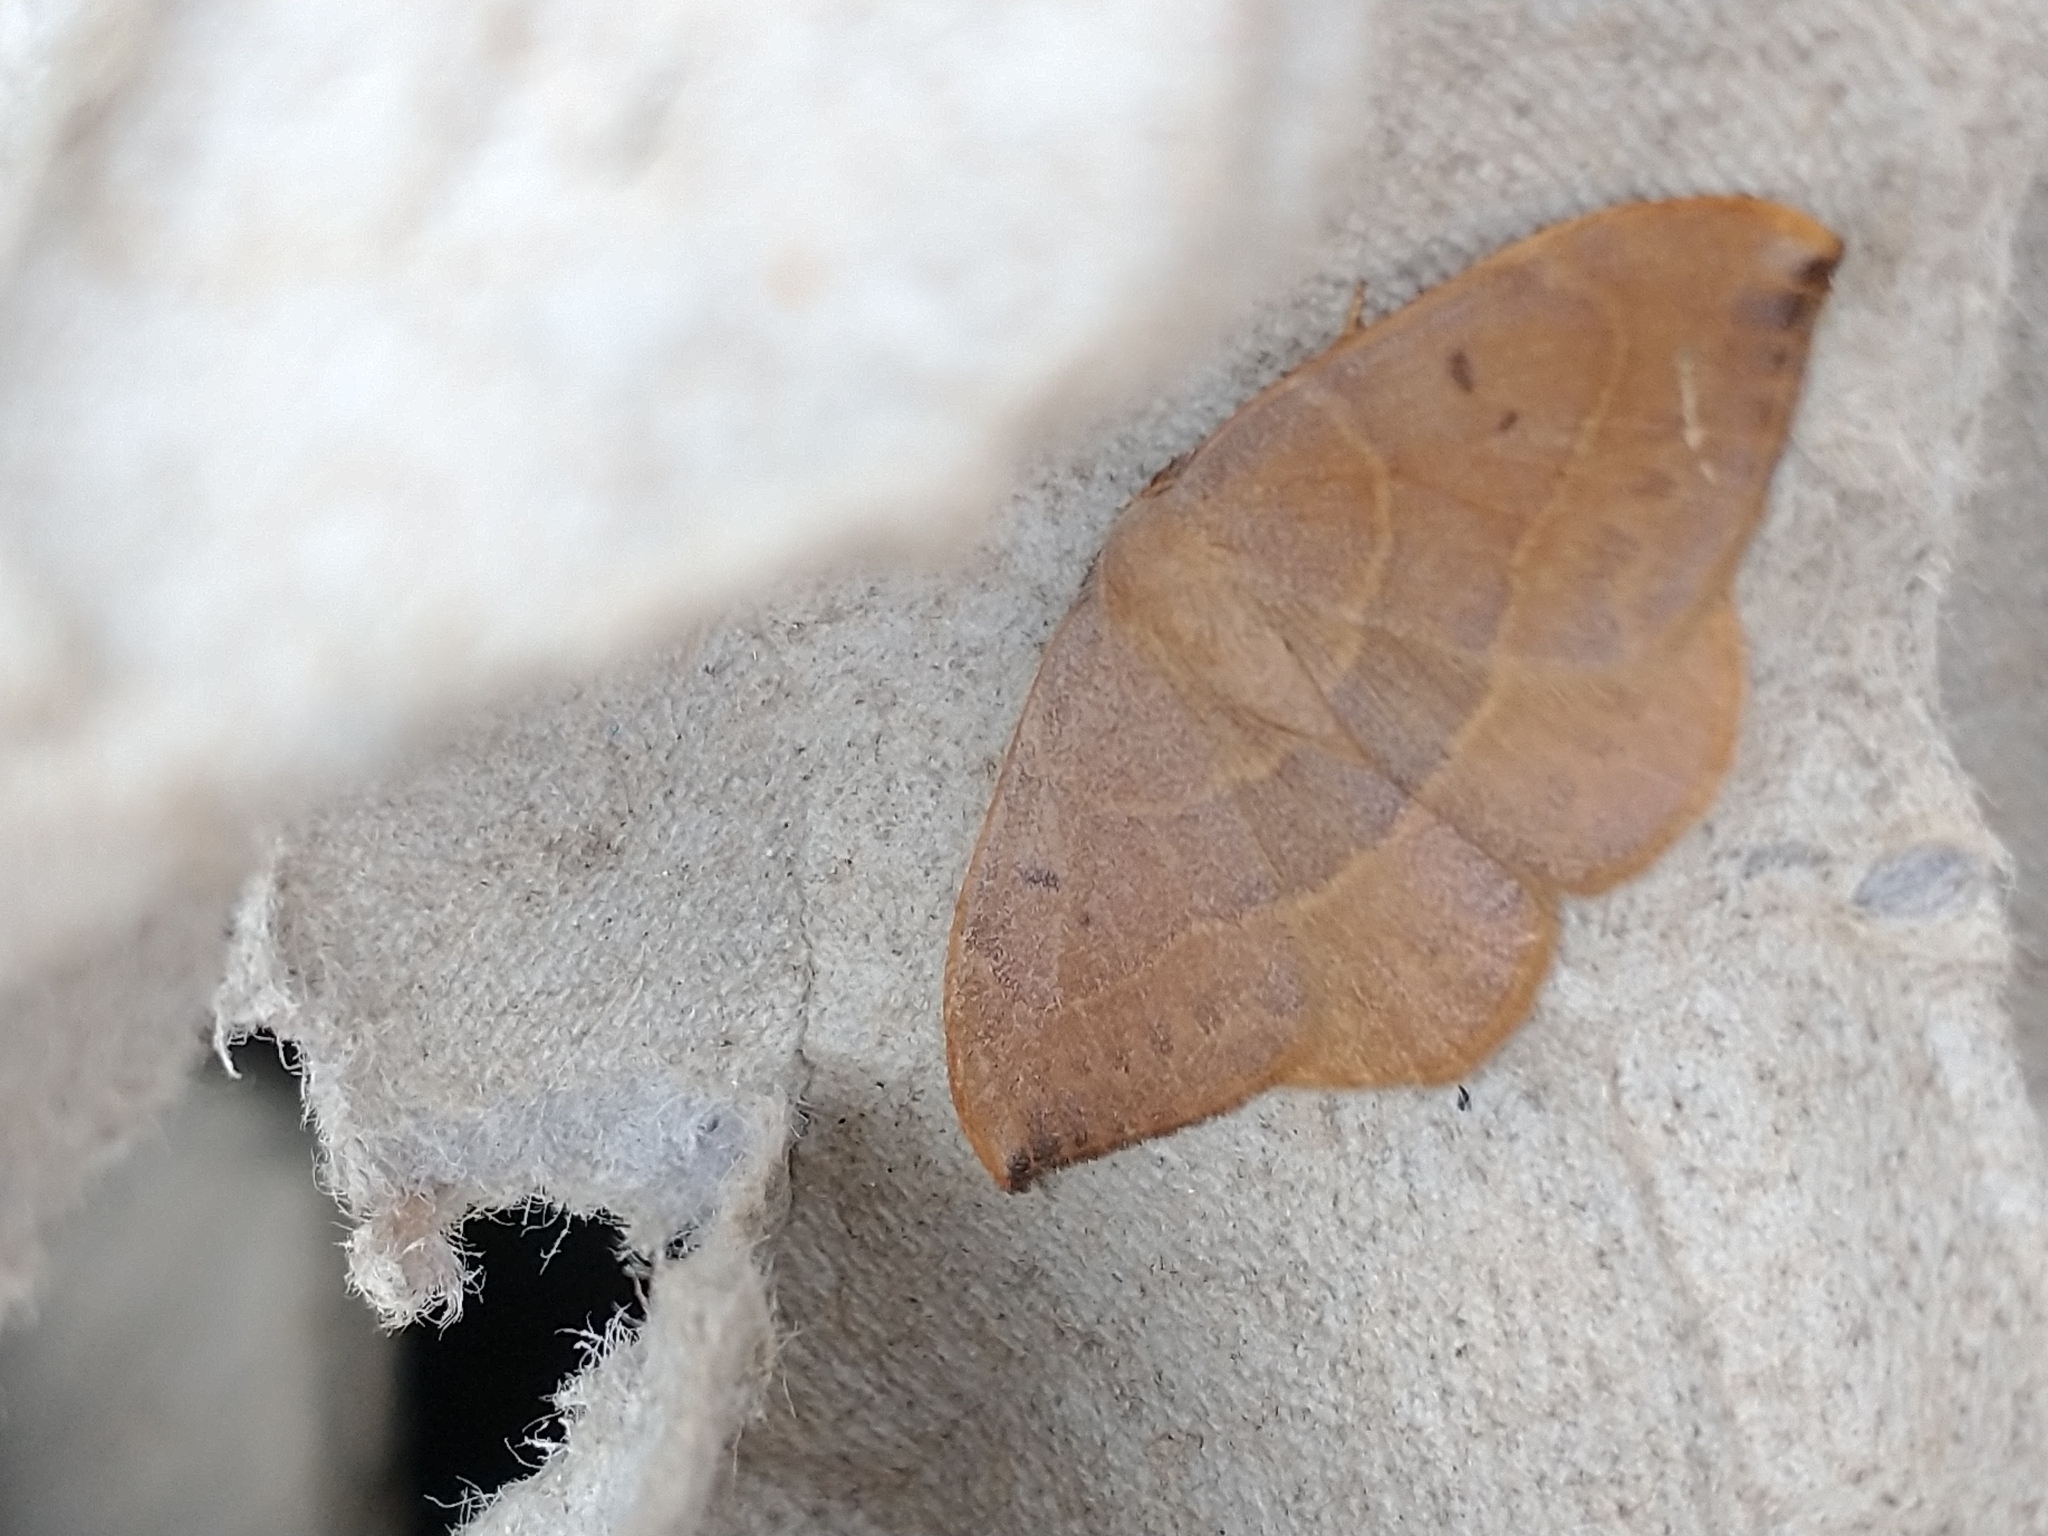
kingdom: Animalia
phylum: Arthropoda
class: Insecta
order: Lepidoptera
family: Drepanidae
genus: Watsonalla
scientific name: Watsonalla binaria
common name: Oak hook-tip
